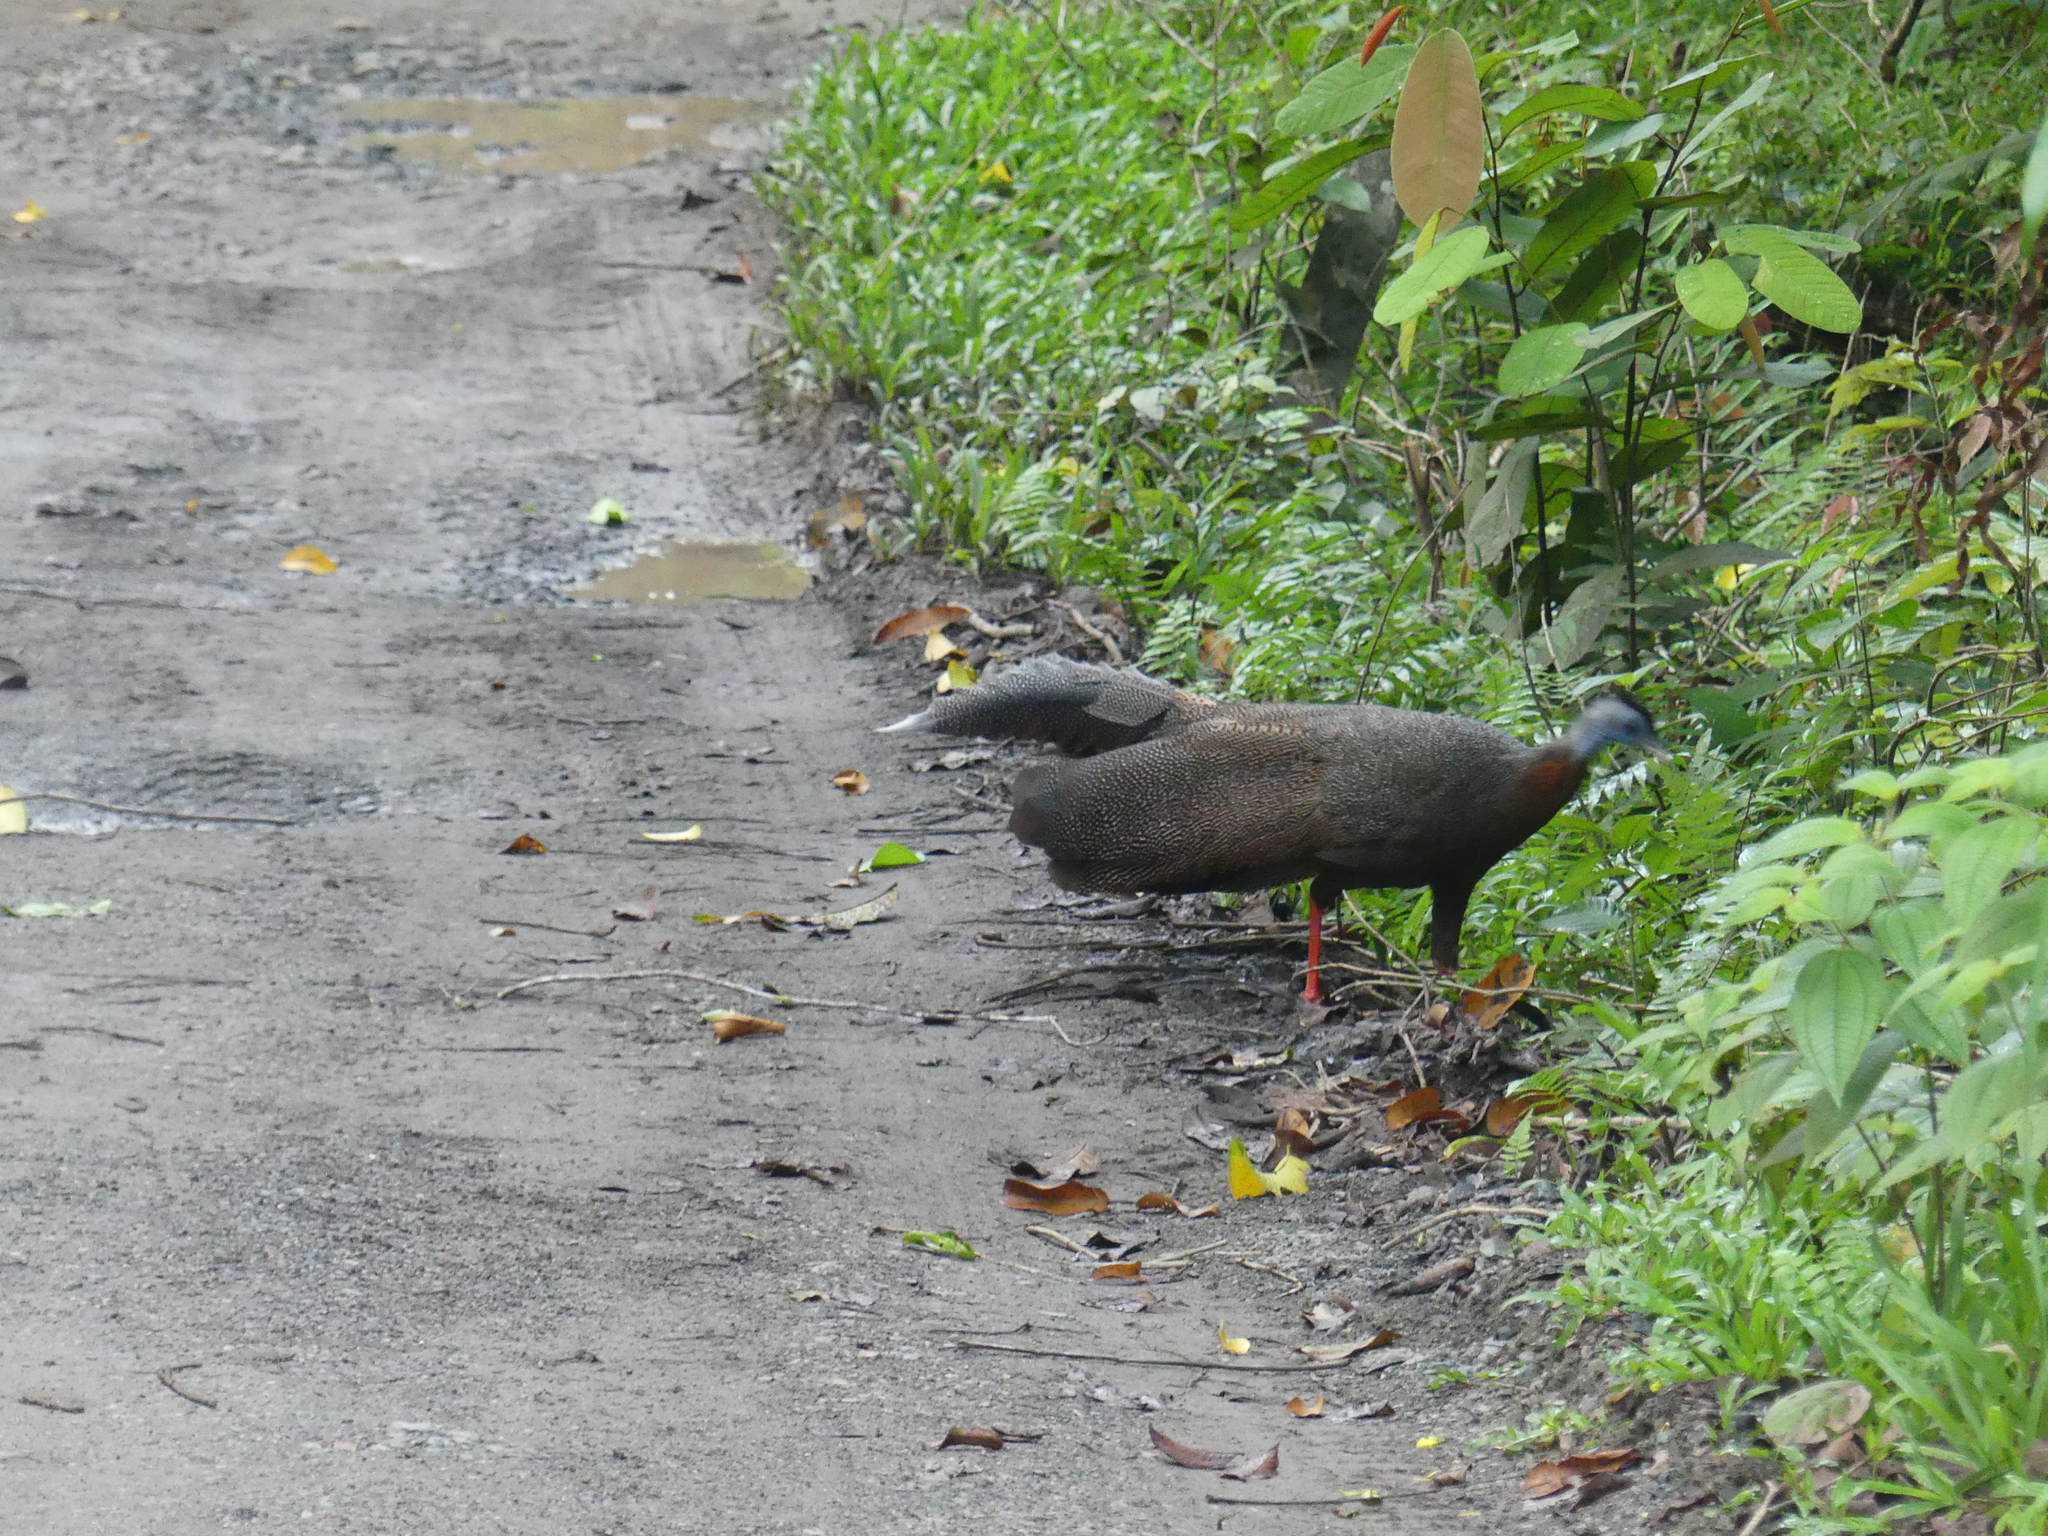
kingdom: Animalia
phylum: Chordata
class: Aves
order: Galliformes
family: Phasianidae
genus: Argusianus
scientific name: Argusianus argus
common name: Great argus
